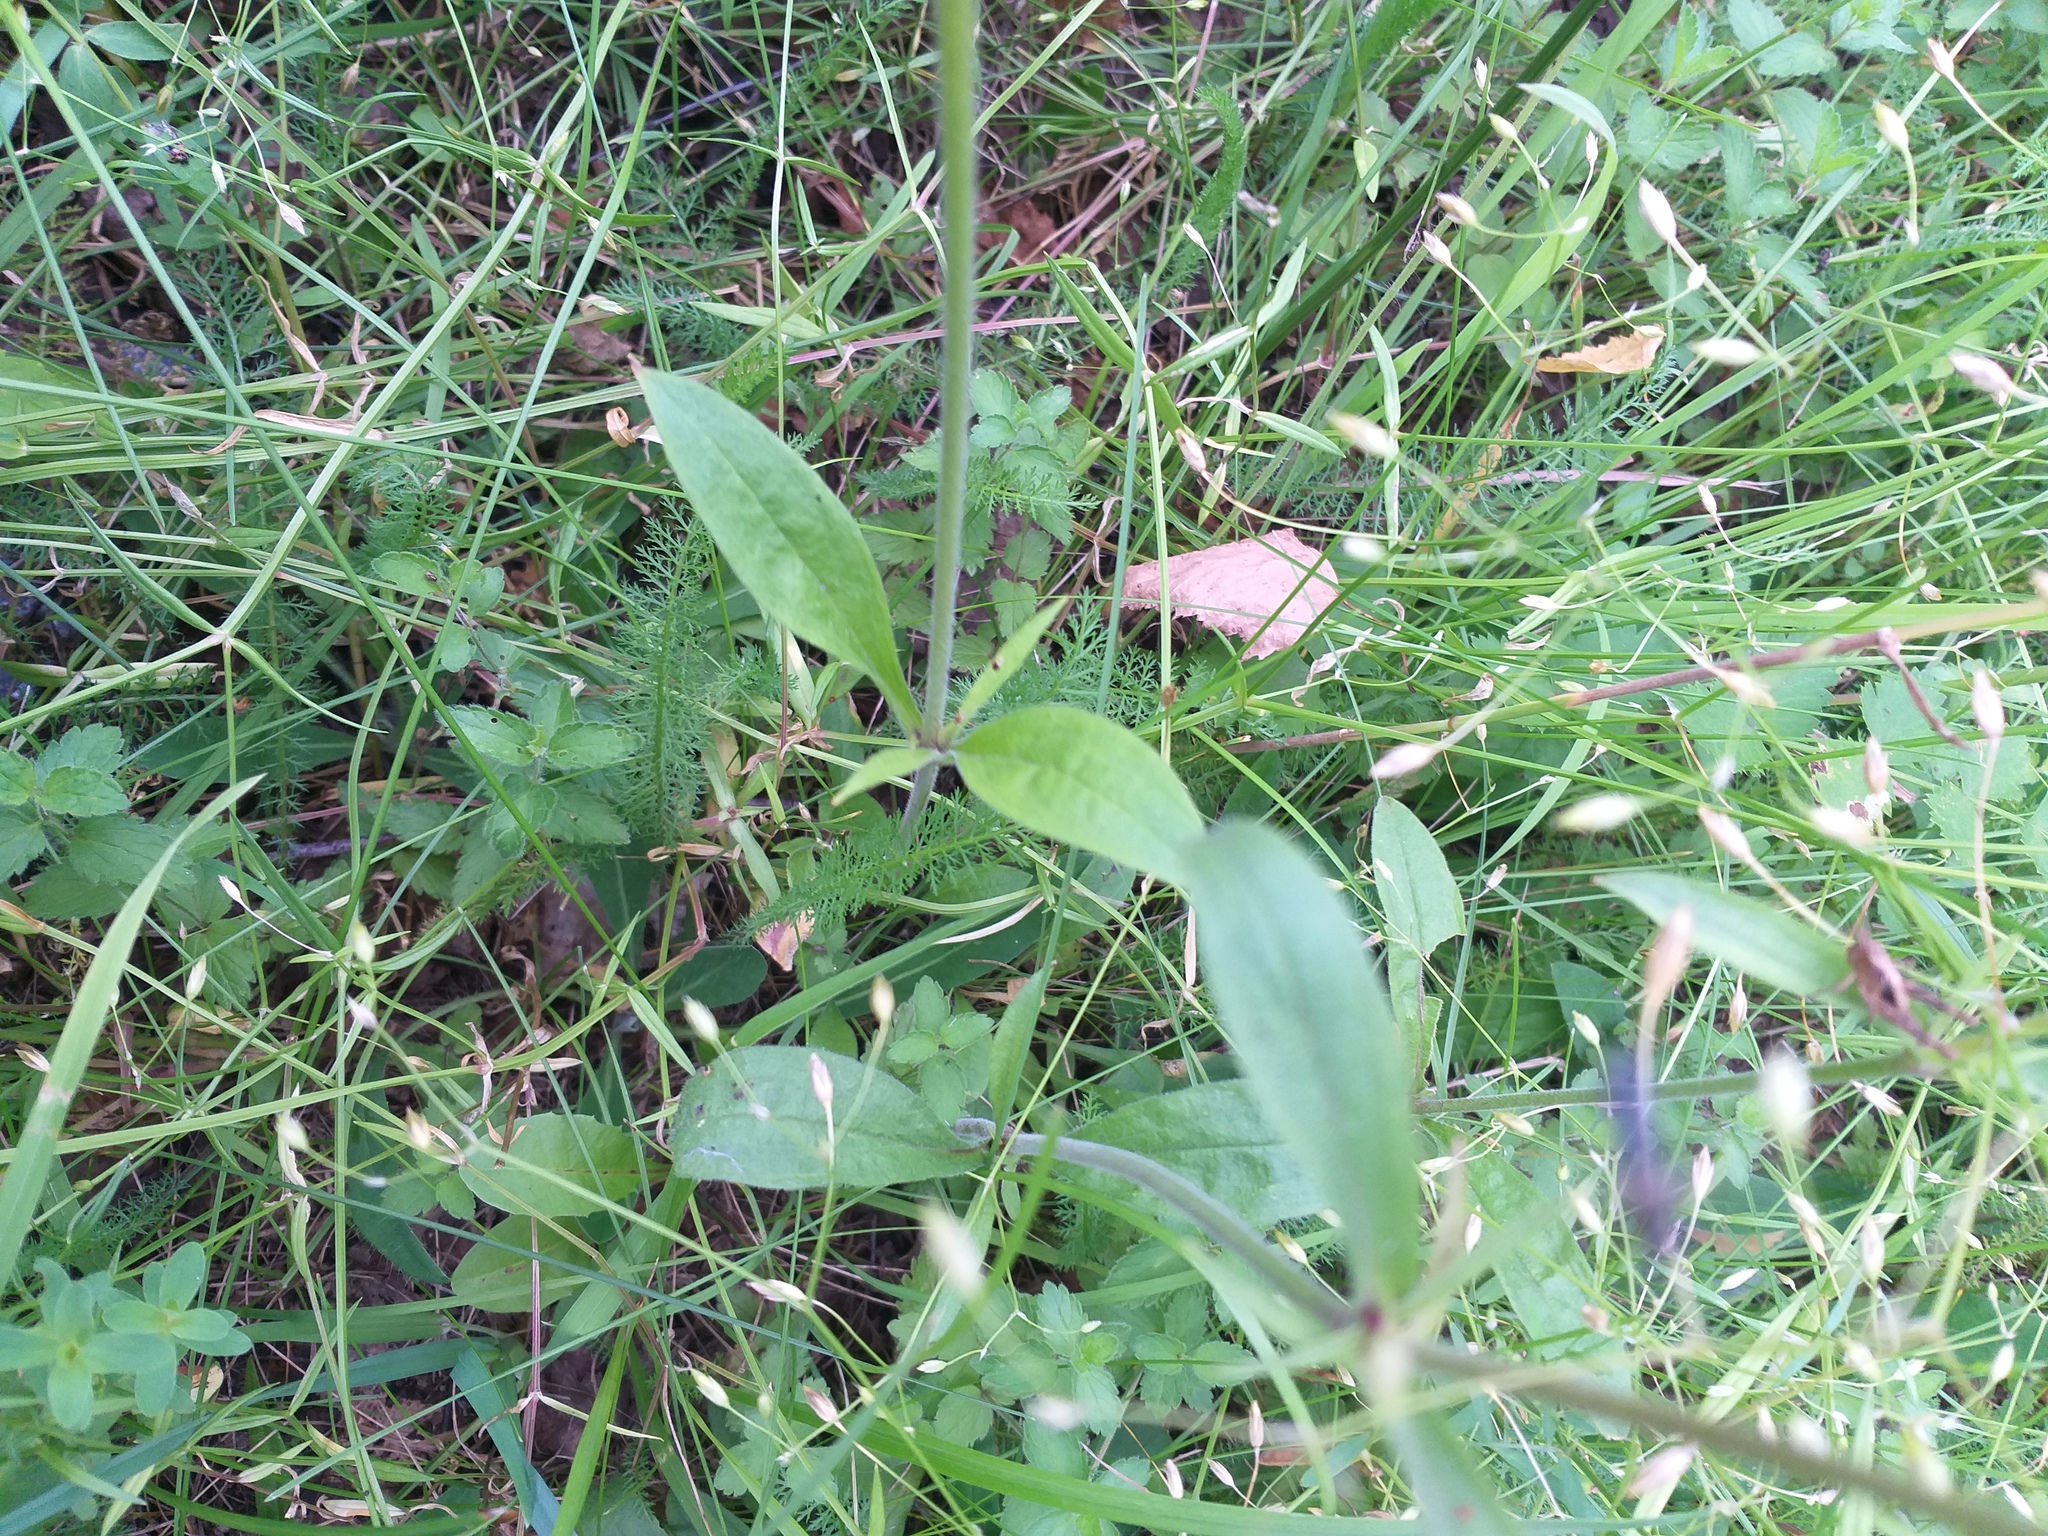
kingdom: Plantae
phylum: Tracheophyta
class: Magnoliopsida
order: Caryophyllales
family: Caryophyllaceae
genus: Silene
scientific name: Silene nutans
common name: Nottingham catchfly
